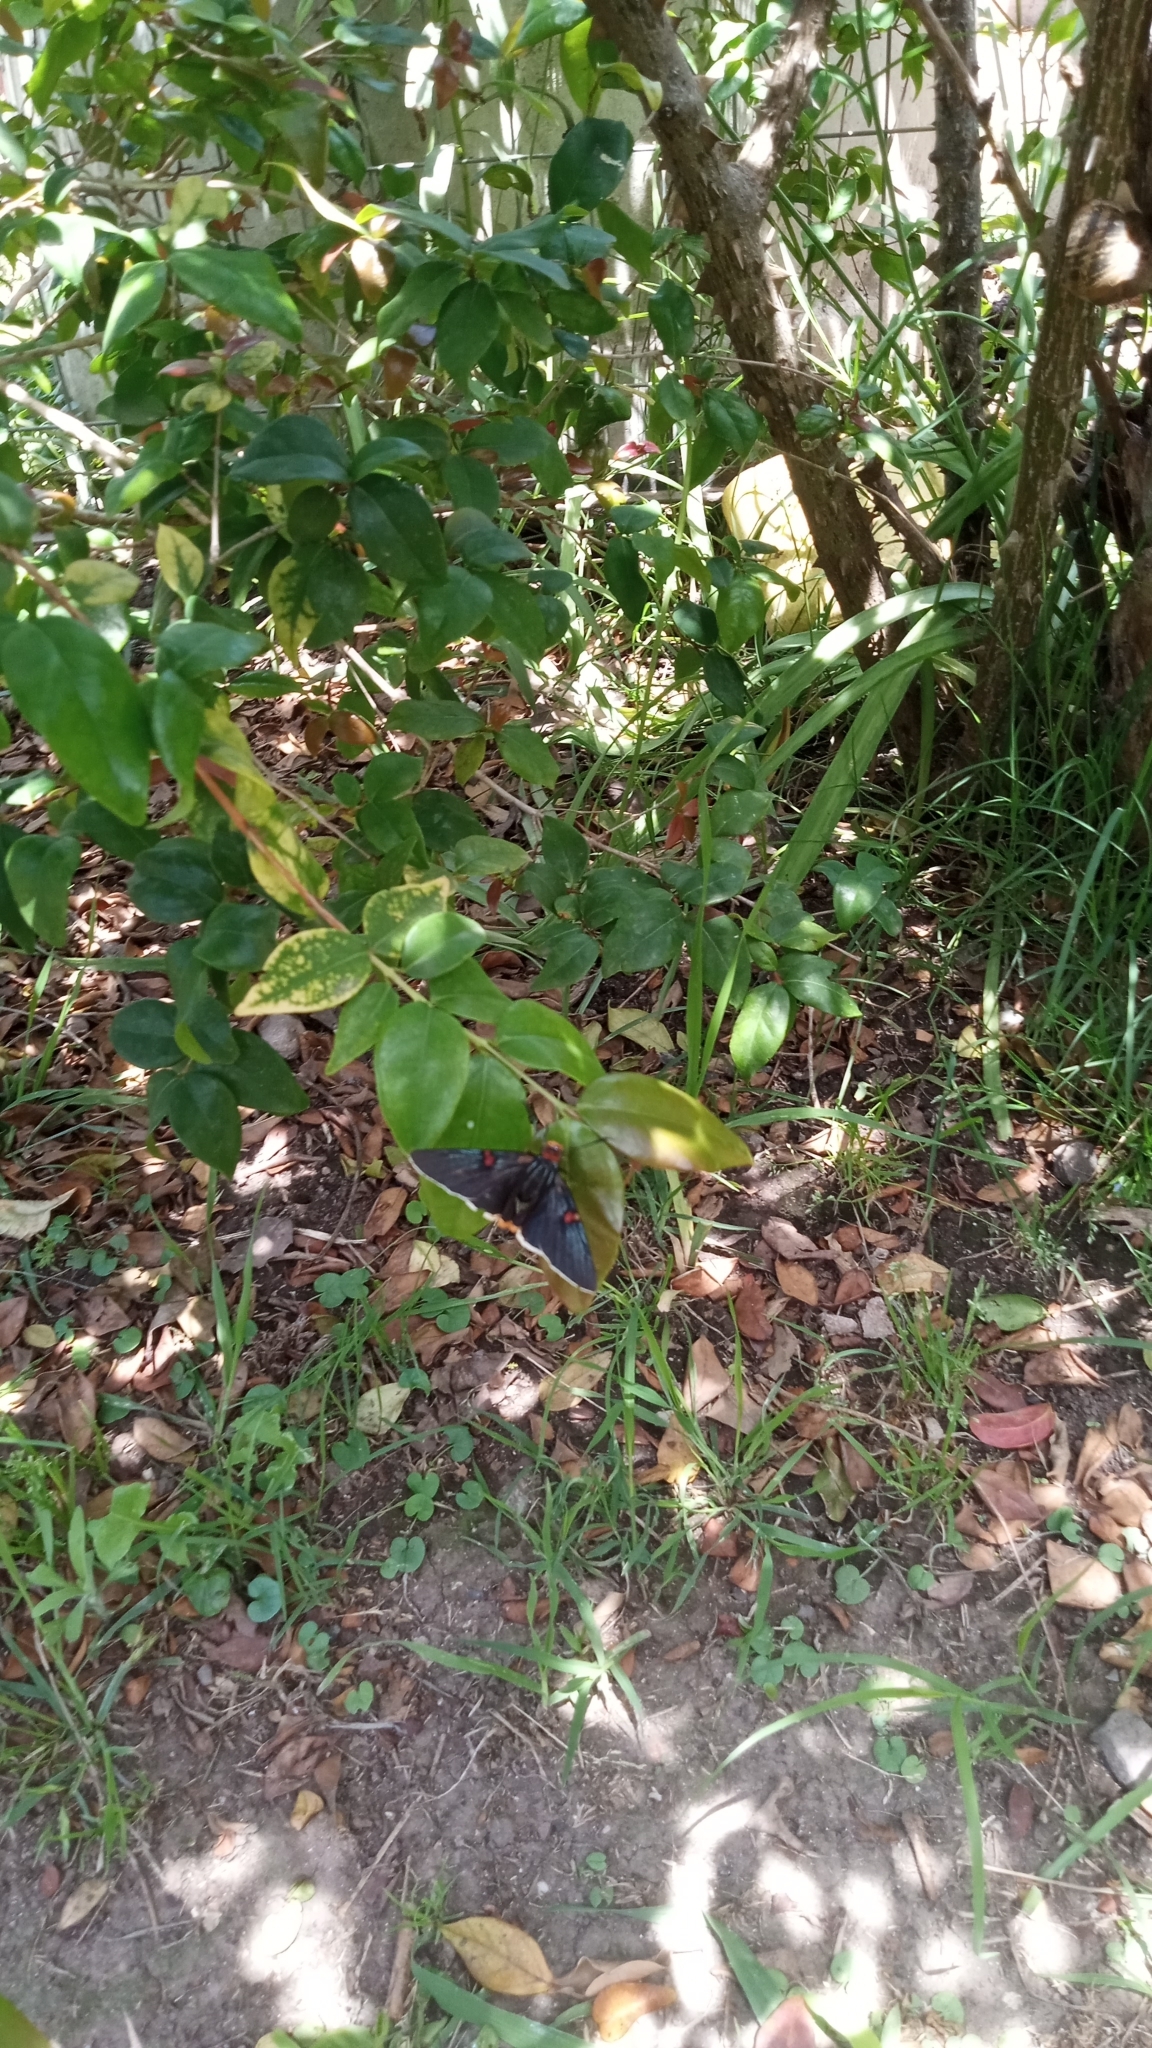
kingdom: Animalia
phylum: Arthropoda
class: Insecta
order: Lepidoptera
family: Hesperiidae
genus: Phocides
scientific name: Phocides polybius
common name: Guava skipper
